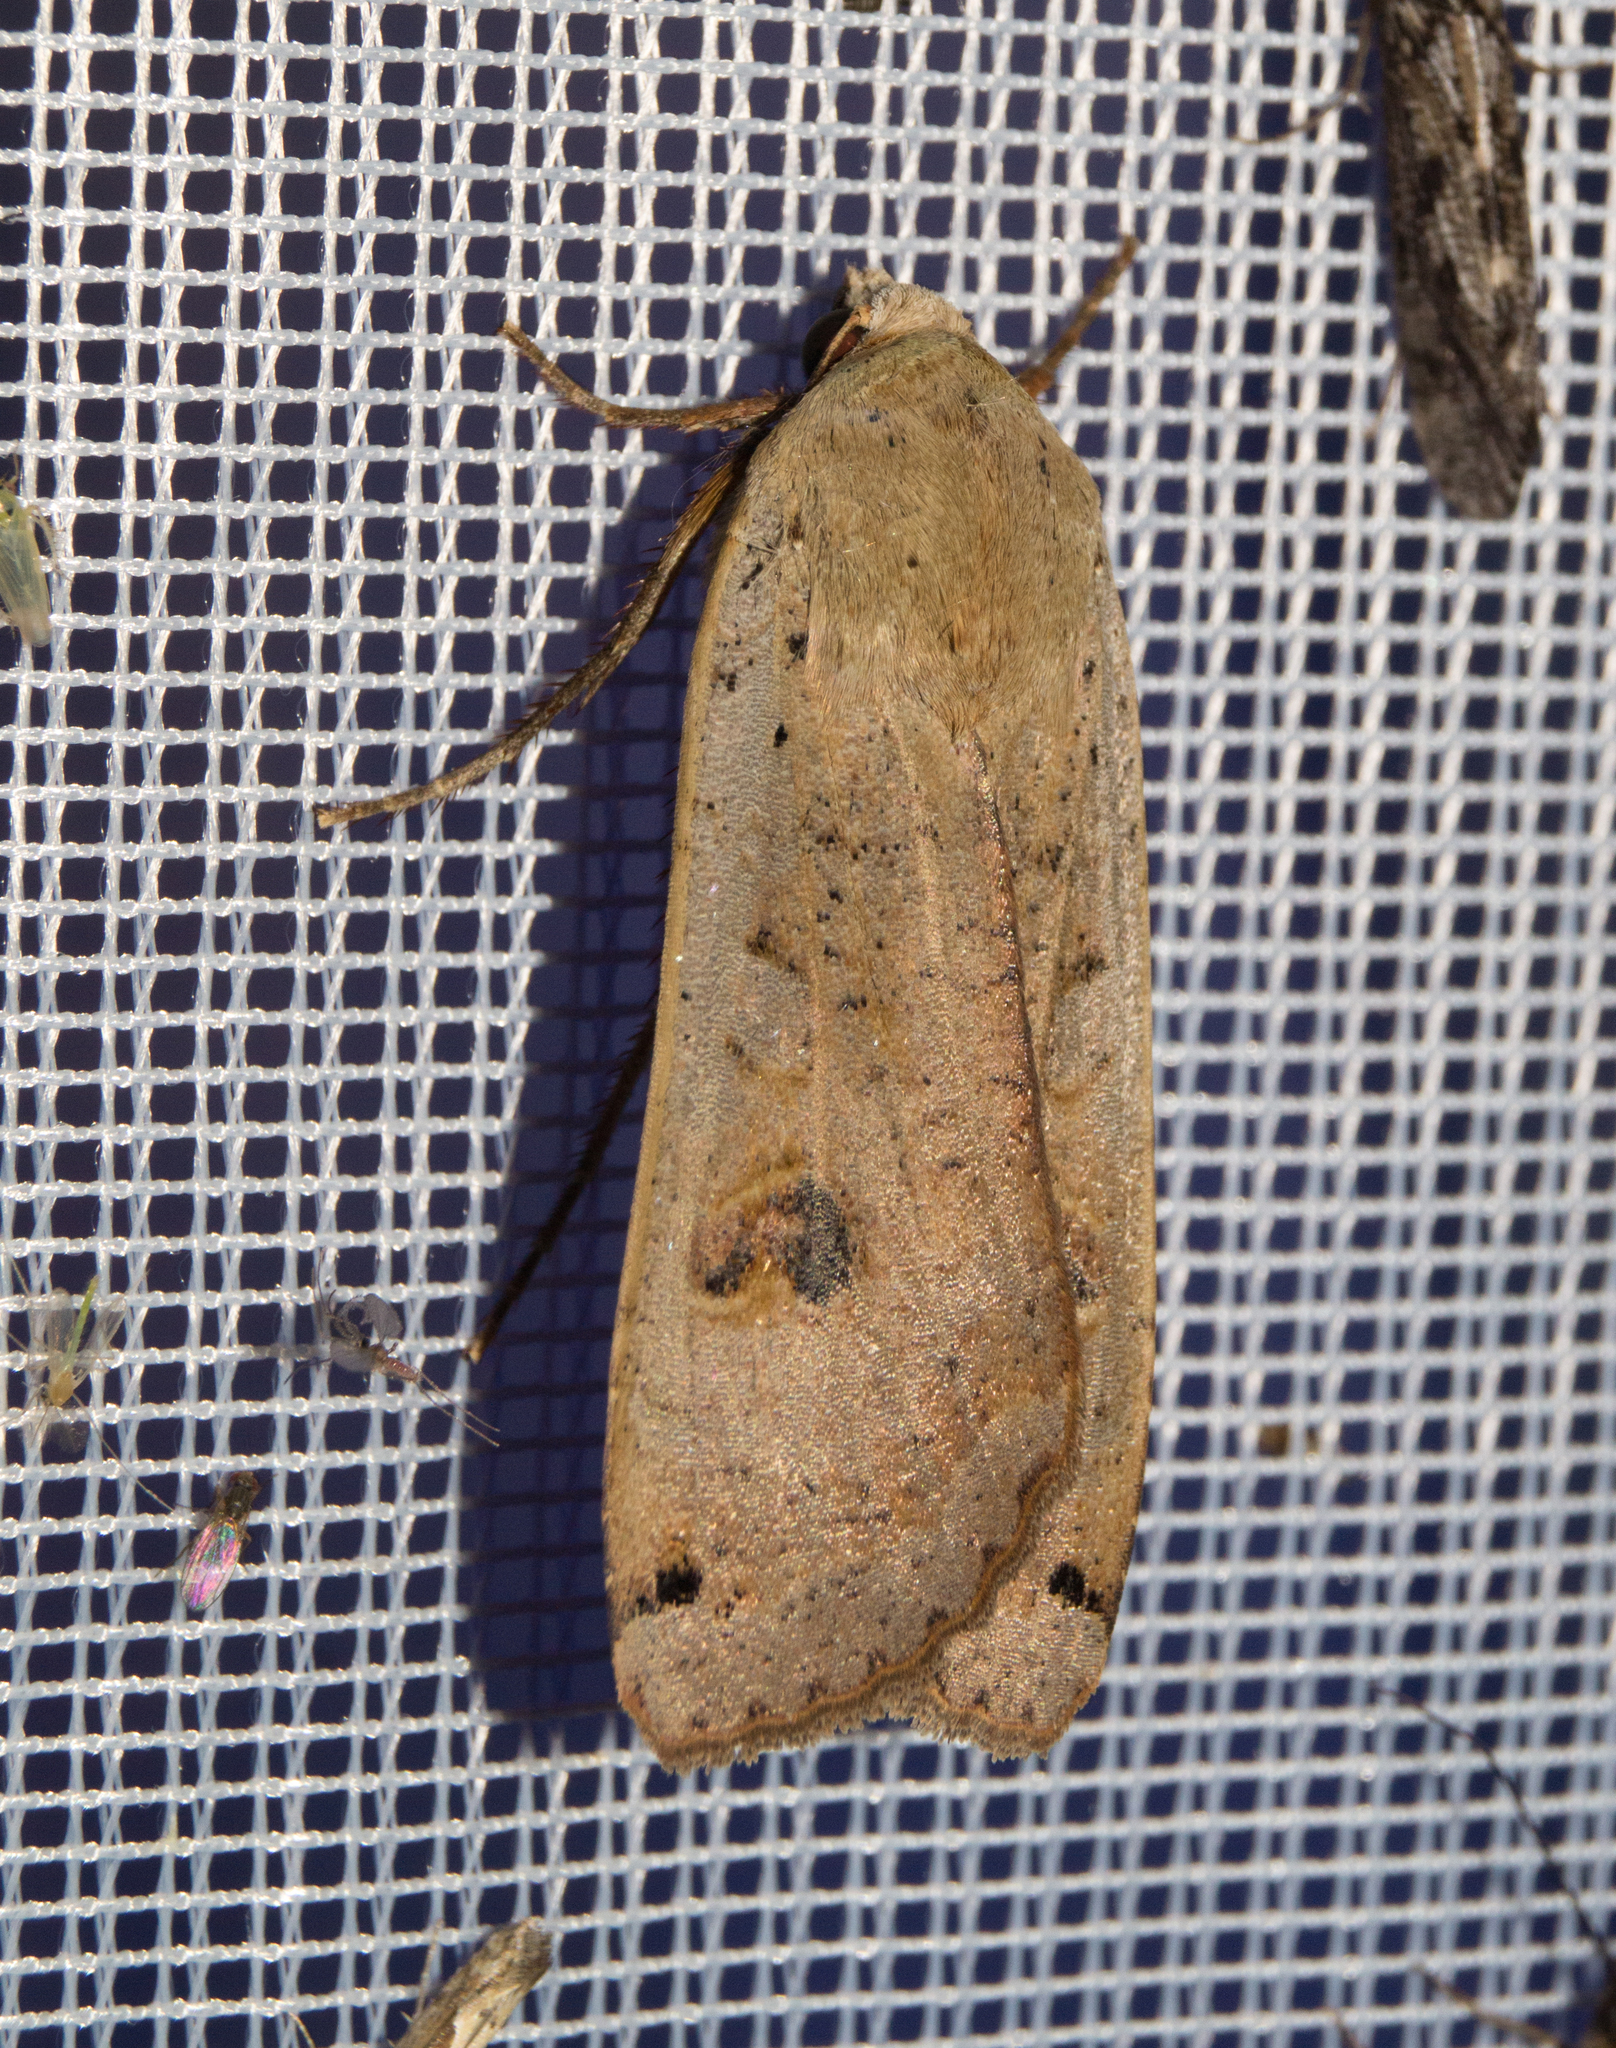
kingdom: Animalia
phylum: Arthropoda
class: Insecta
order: Lepidoptera
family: Noctuidae
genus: Noctua
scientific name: Noctua pronuba
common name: Large yellow underwing
